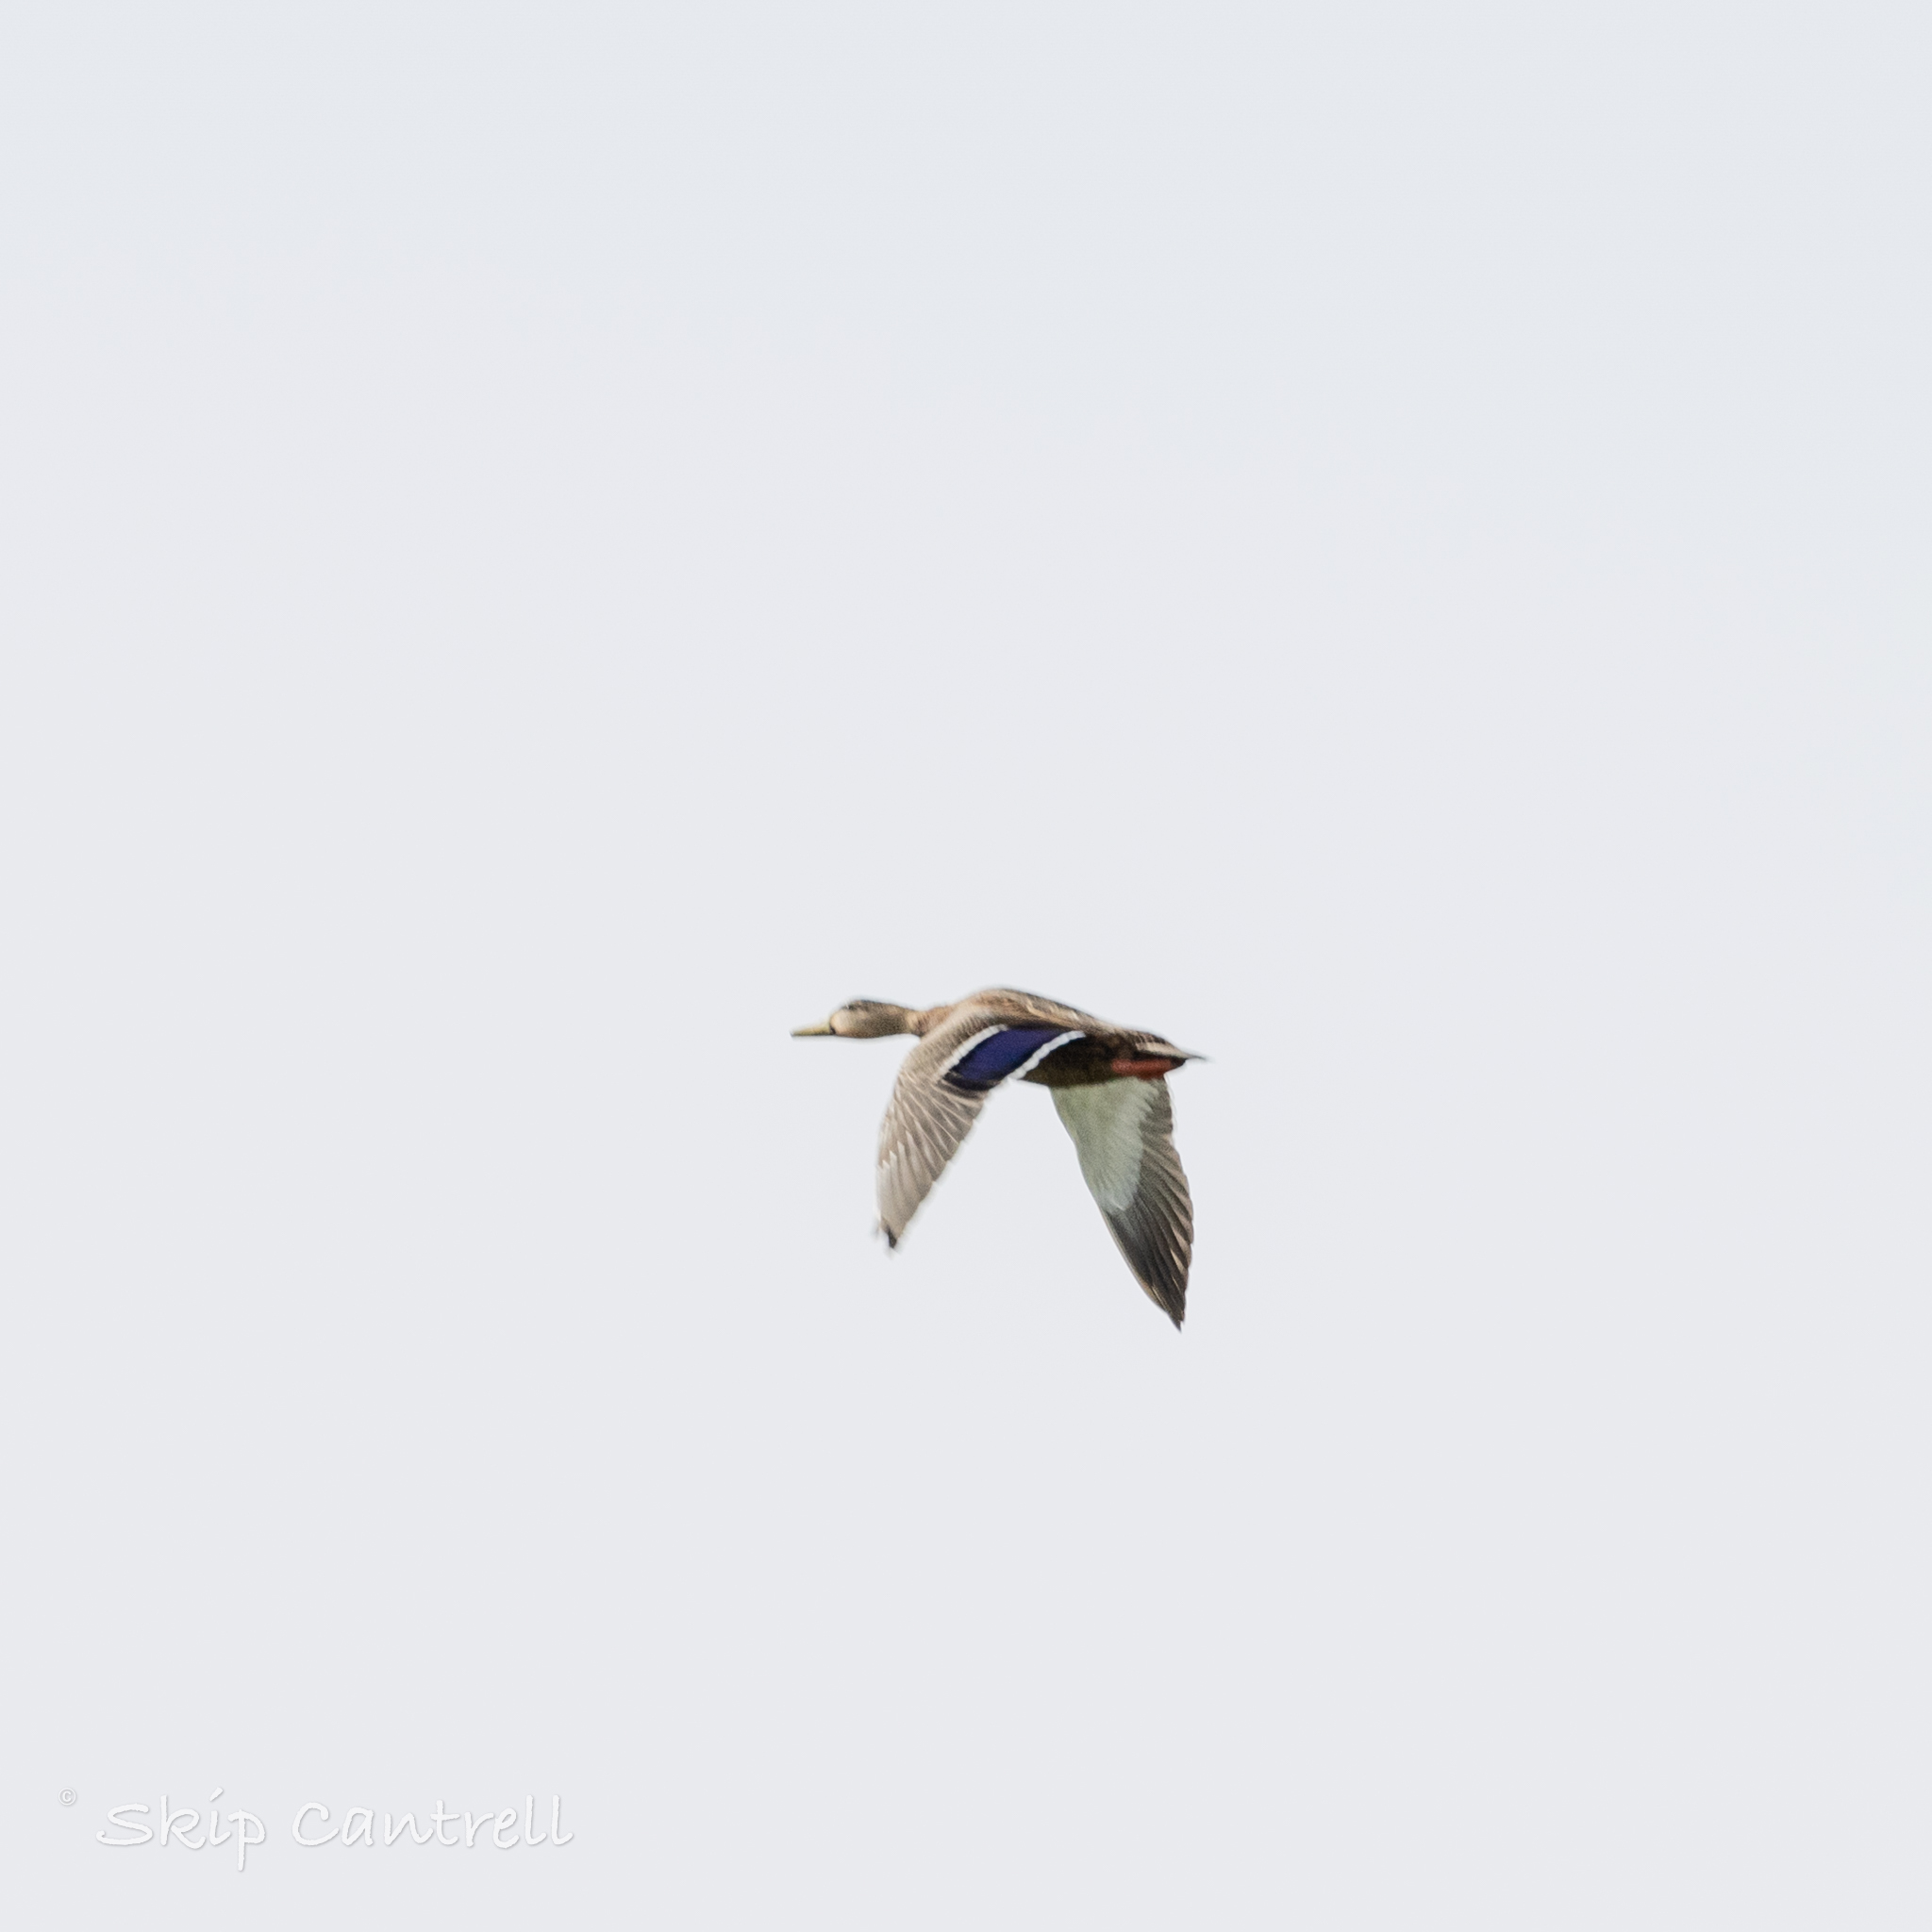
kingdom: Animalia
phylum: Chordata
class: Aves
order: Anseriformes
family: Anatidae
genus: Anas
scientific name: Anas diazi
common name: Mexican duck
